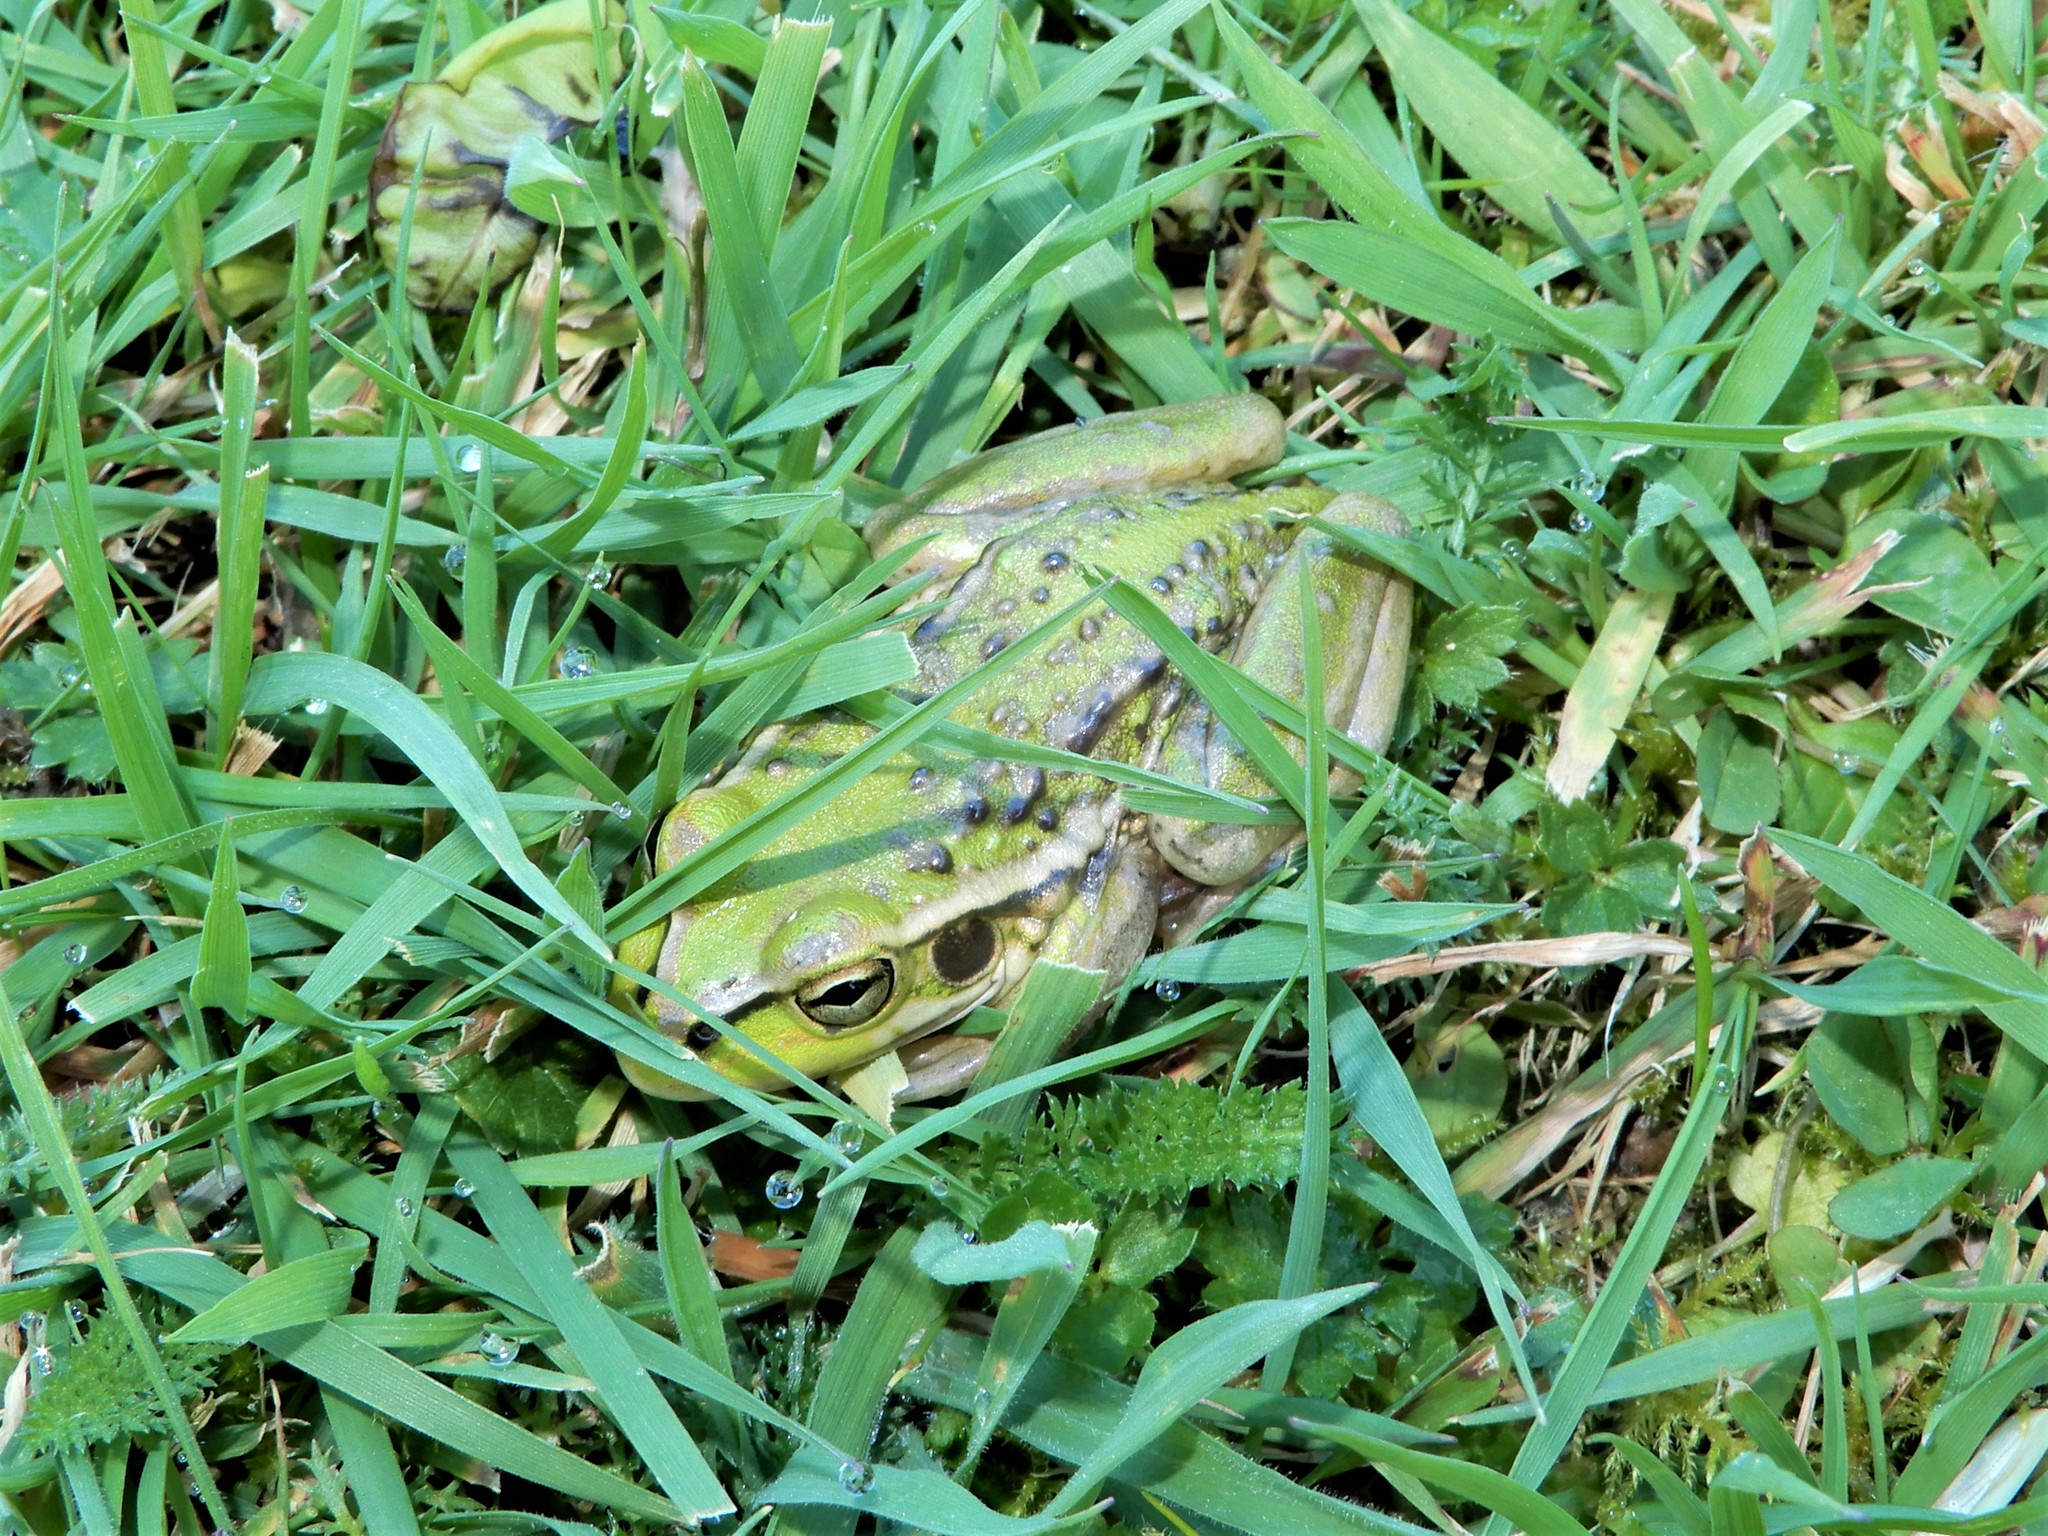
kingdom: Animalia
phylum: Chordata
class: Amphibia
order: Anura
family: Pelodryadidae
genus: Ranoidea
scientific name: Ranoidea raniformis
